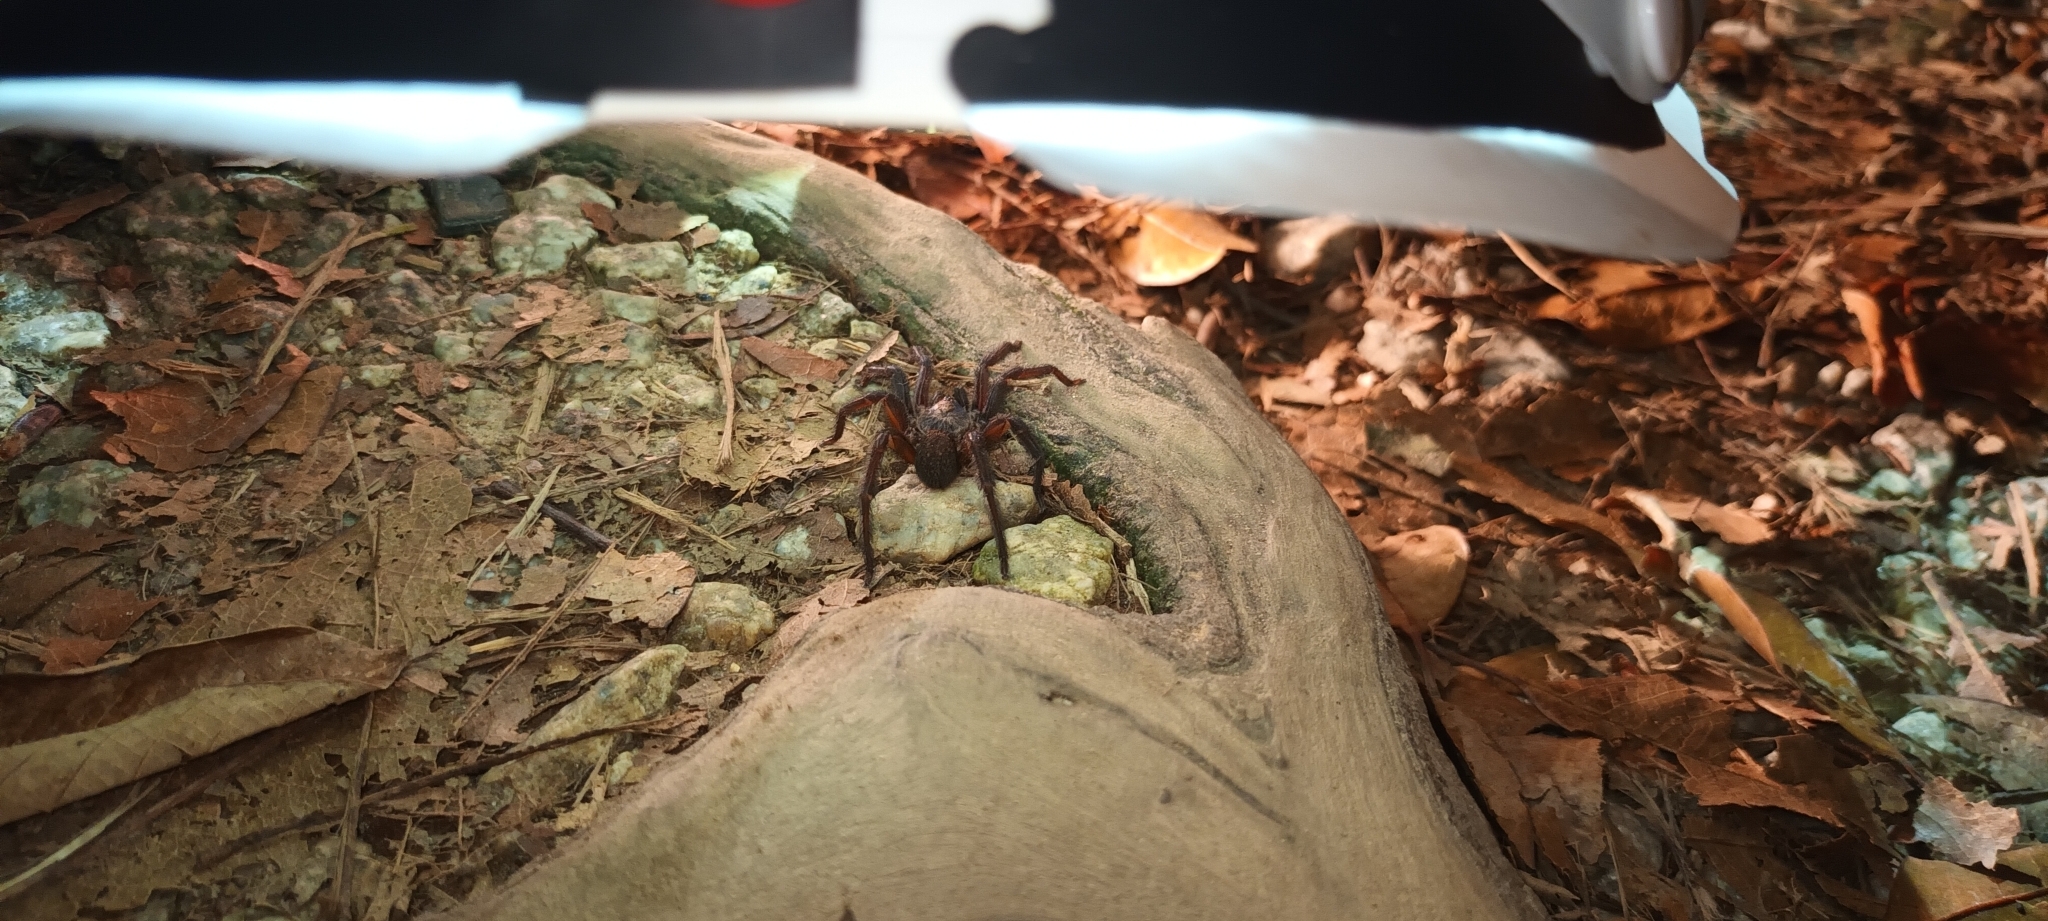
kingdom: Animalia
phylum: Arthropoda
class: Arachnida
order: Araneae
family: Barychelidae
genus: Rhianodes
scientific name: Rhianodes atratus
